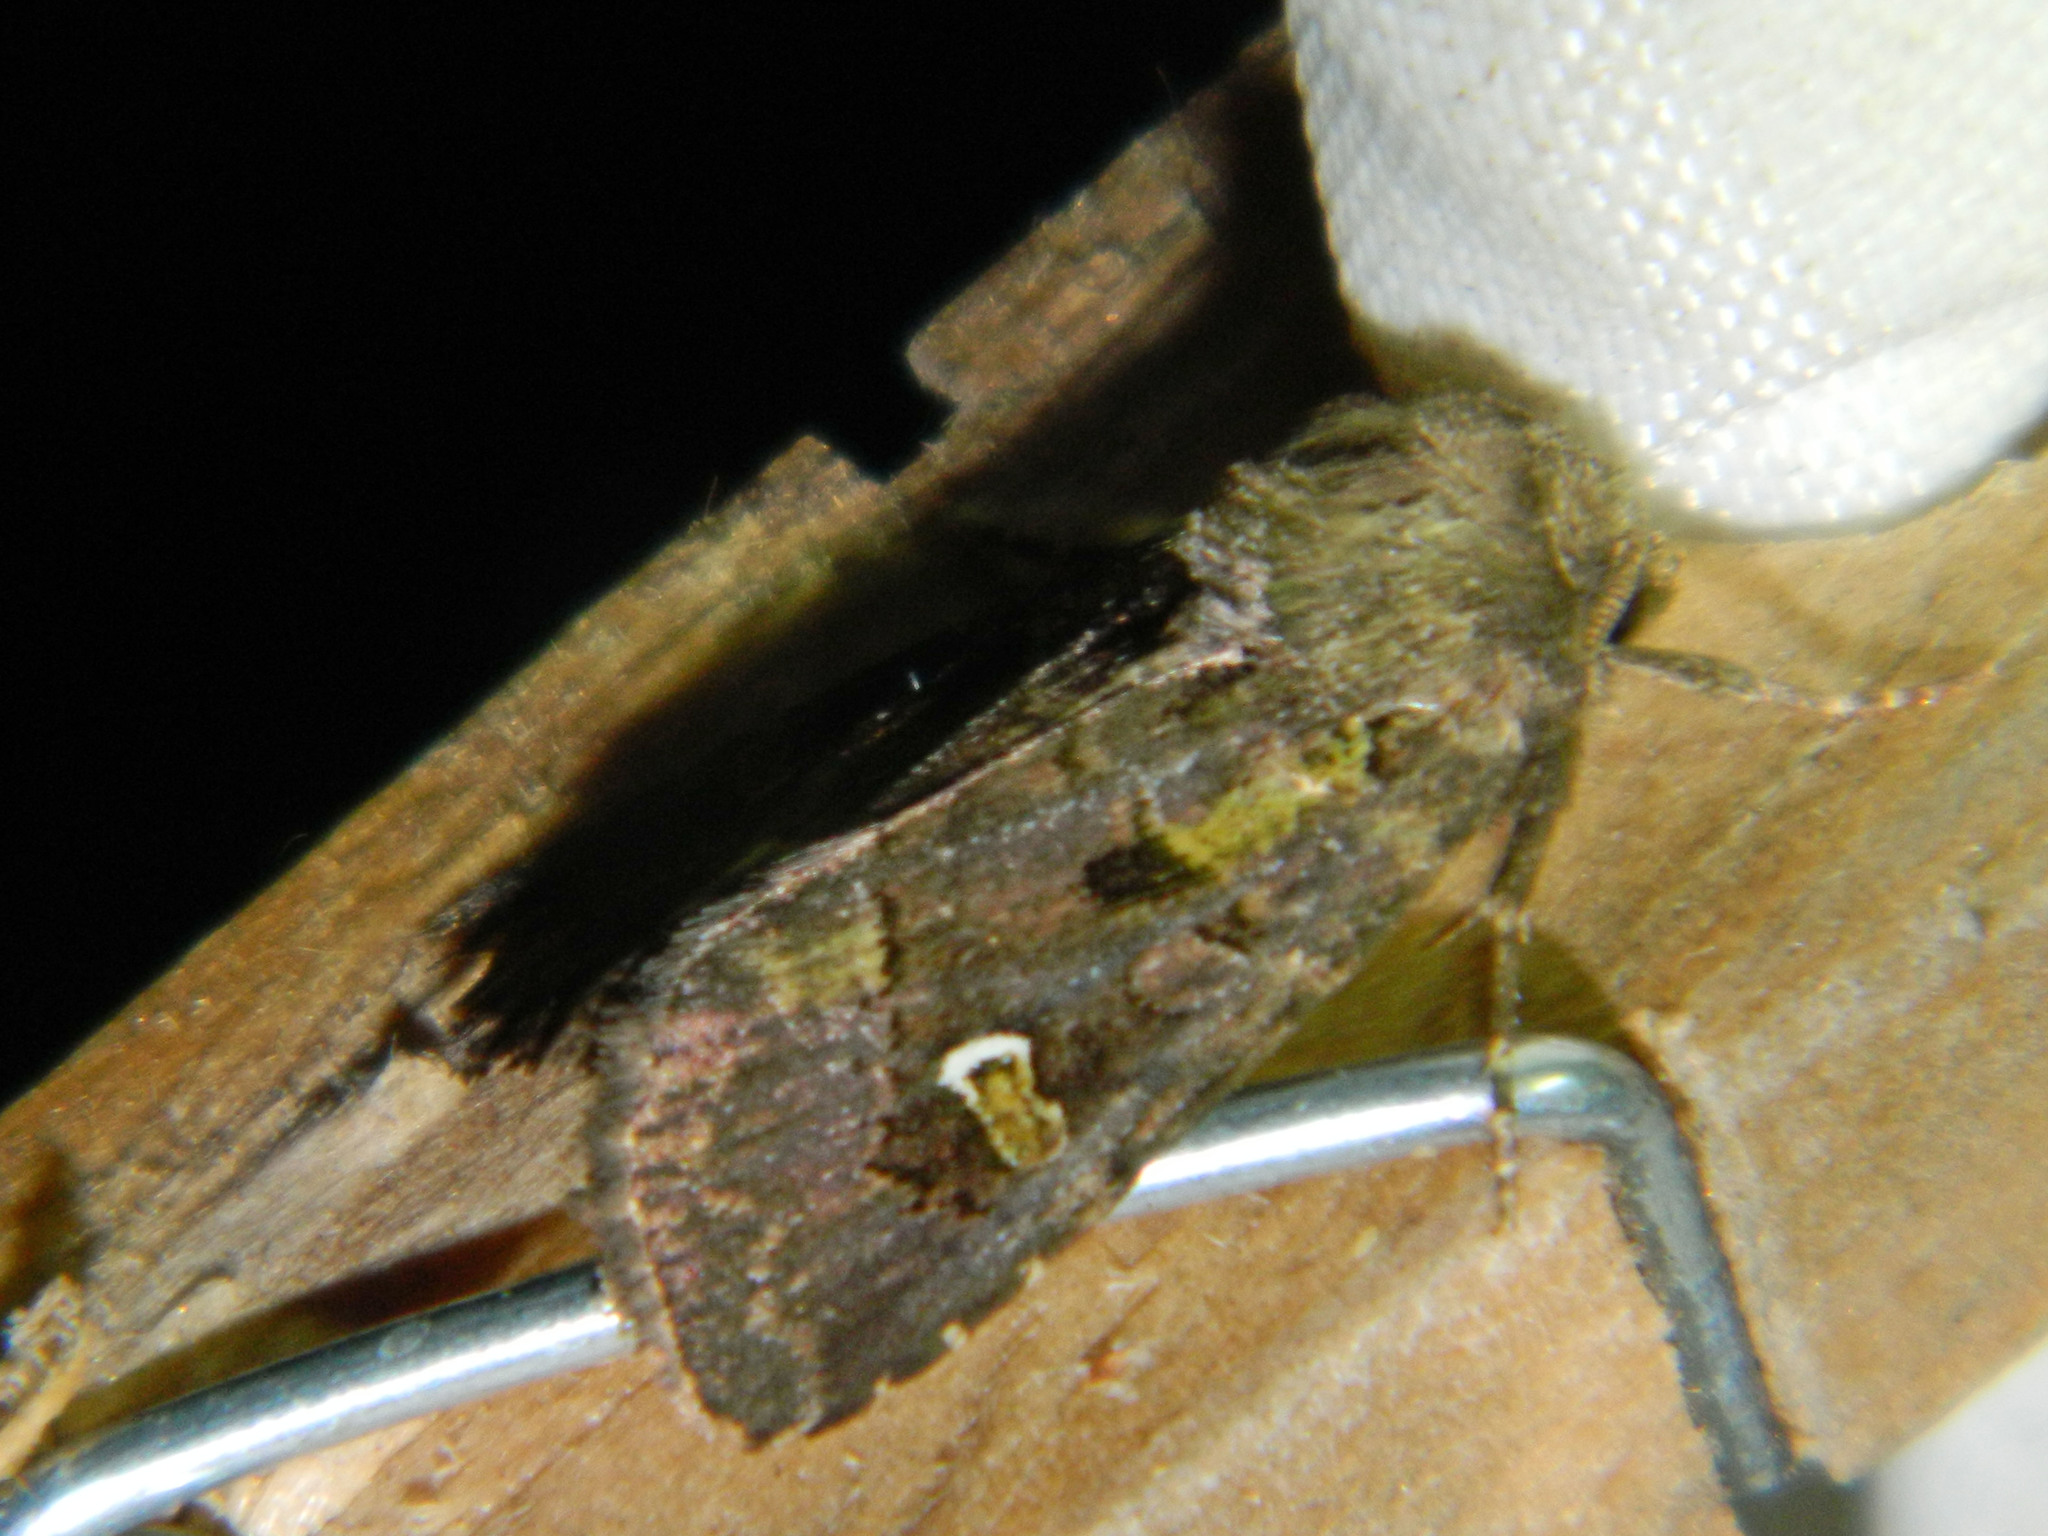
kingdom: Animalia
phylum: Arthropoda
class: Insecta
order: Lepidoptera
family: Noctuidae
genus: Lacinipolia
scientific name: Lacinipolia renigera
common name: Kidney-spotted minor
